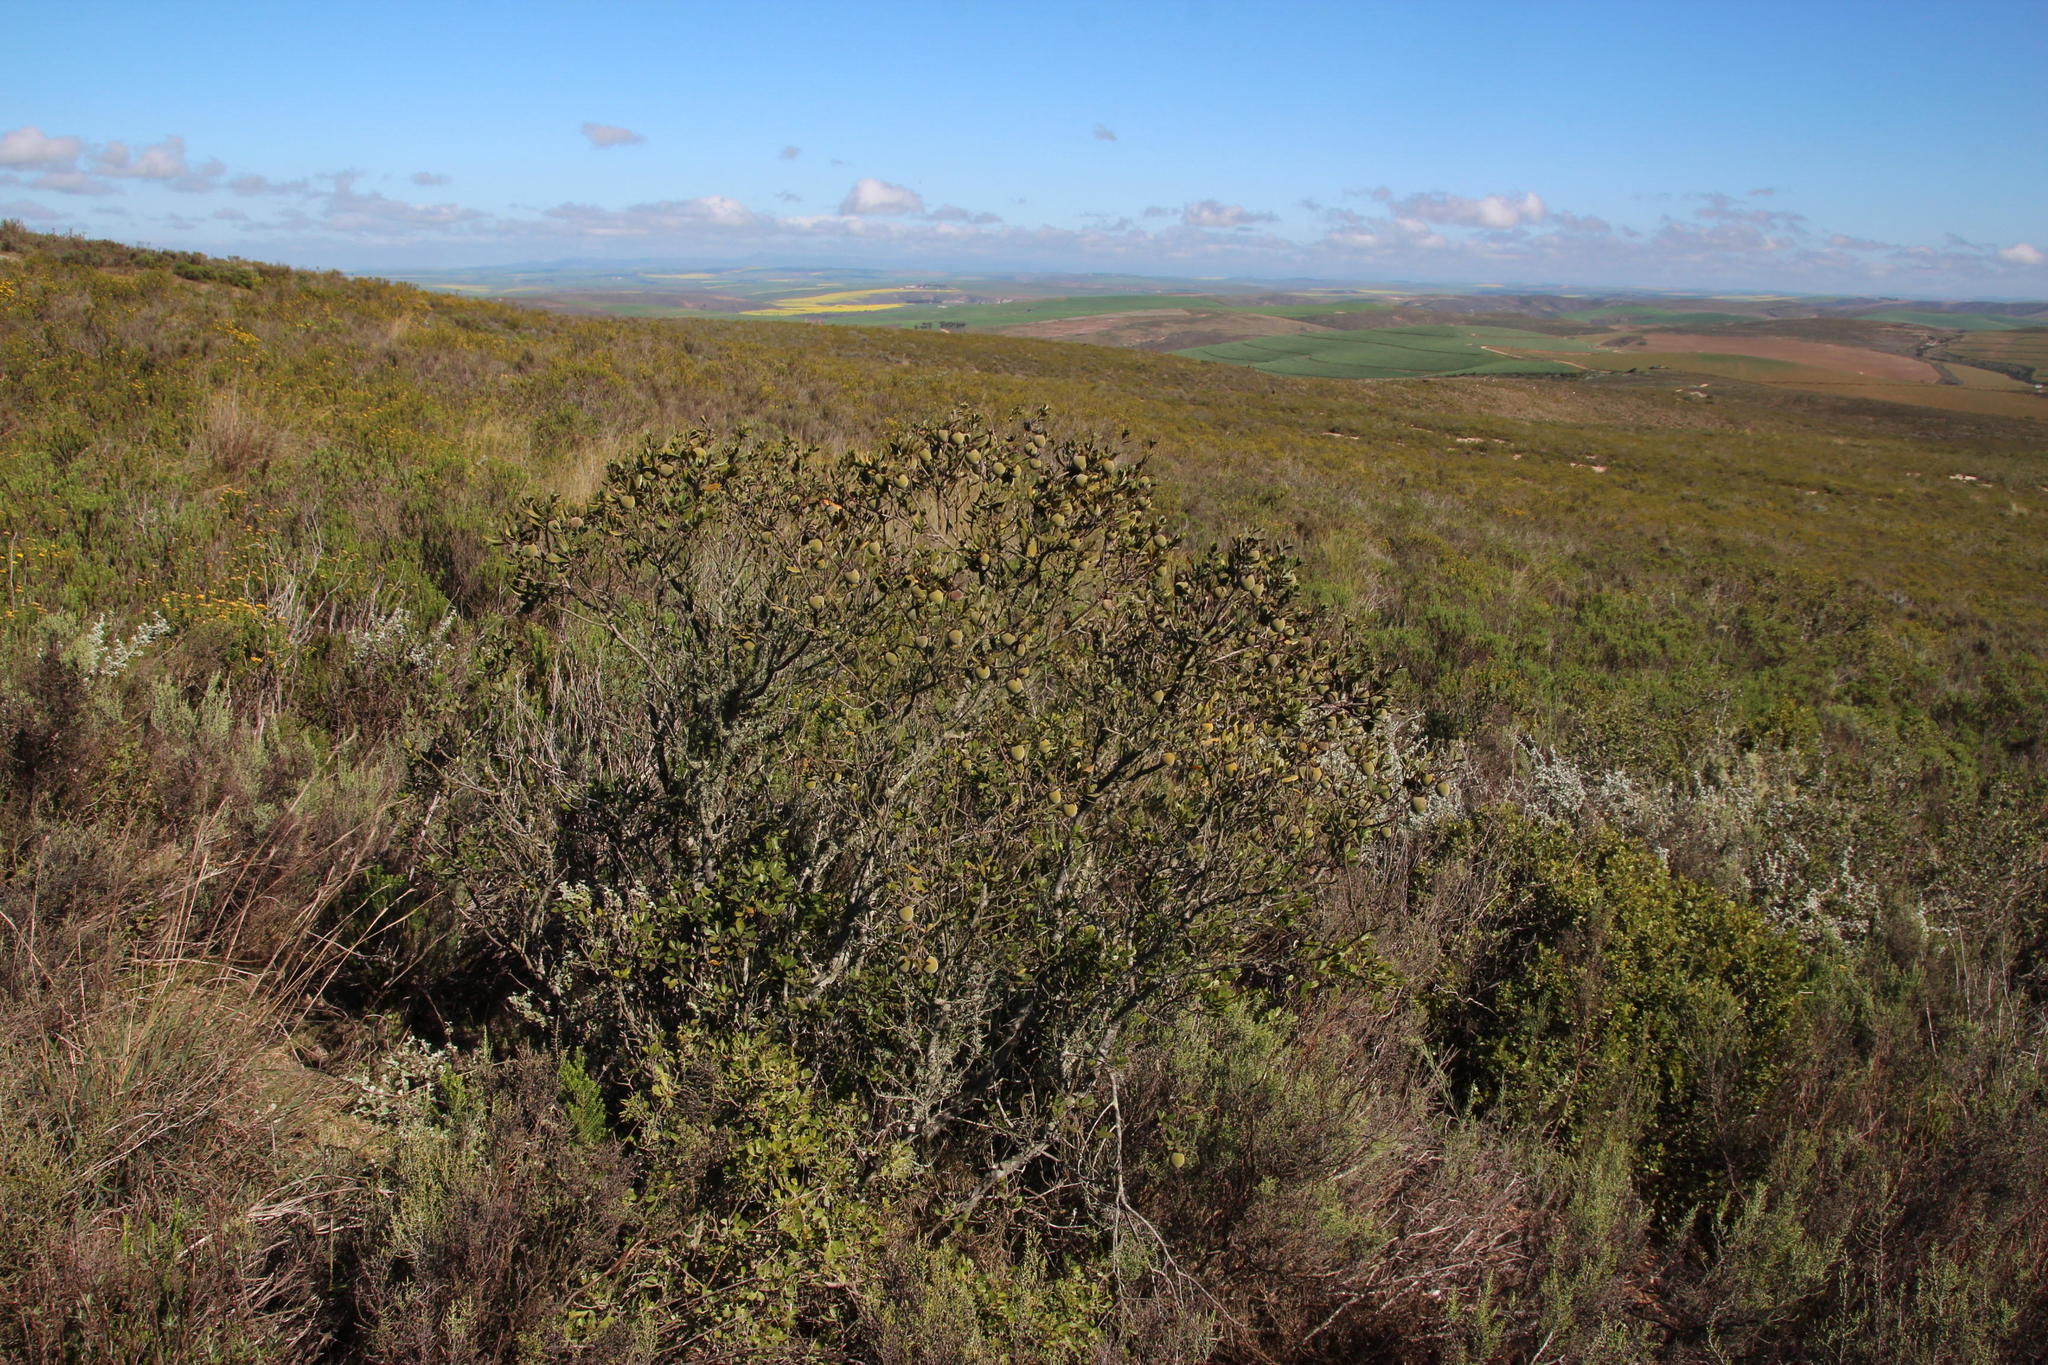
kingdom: Plantae
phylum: Tracheophyta
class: Magnoliopsida
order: Ericales
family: Ebenaceae
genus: Diospyros
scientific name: Diospyros dichrophylla
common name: Common star-apple
